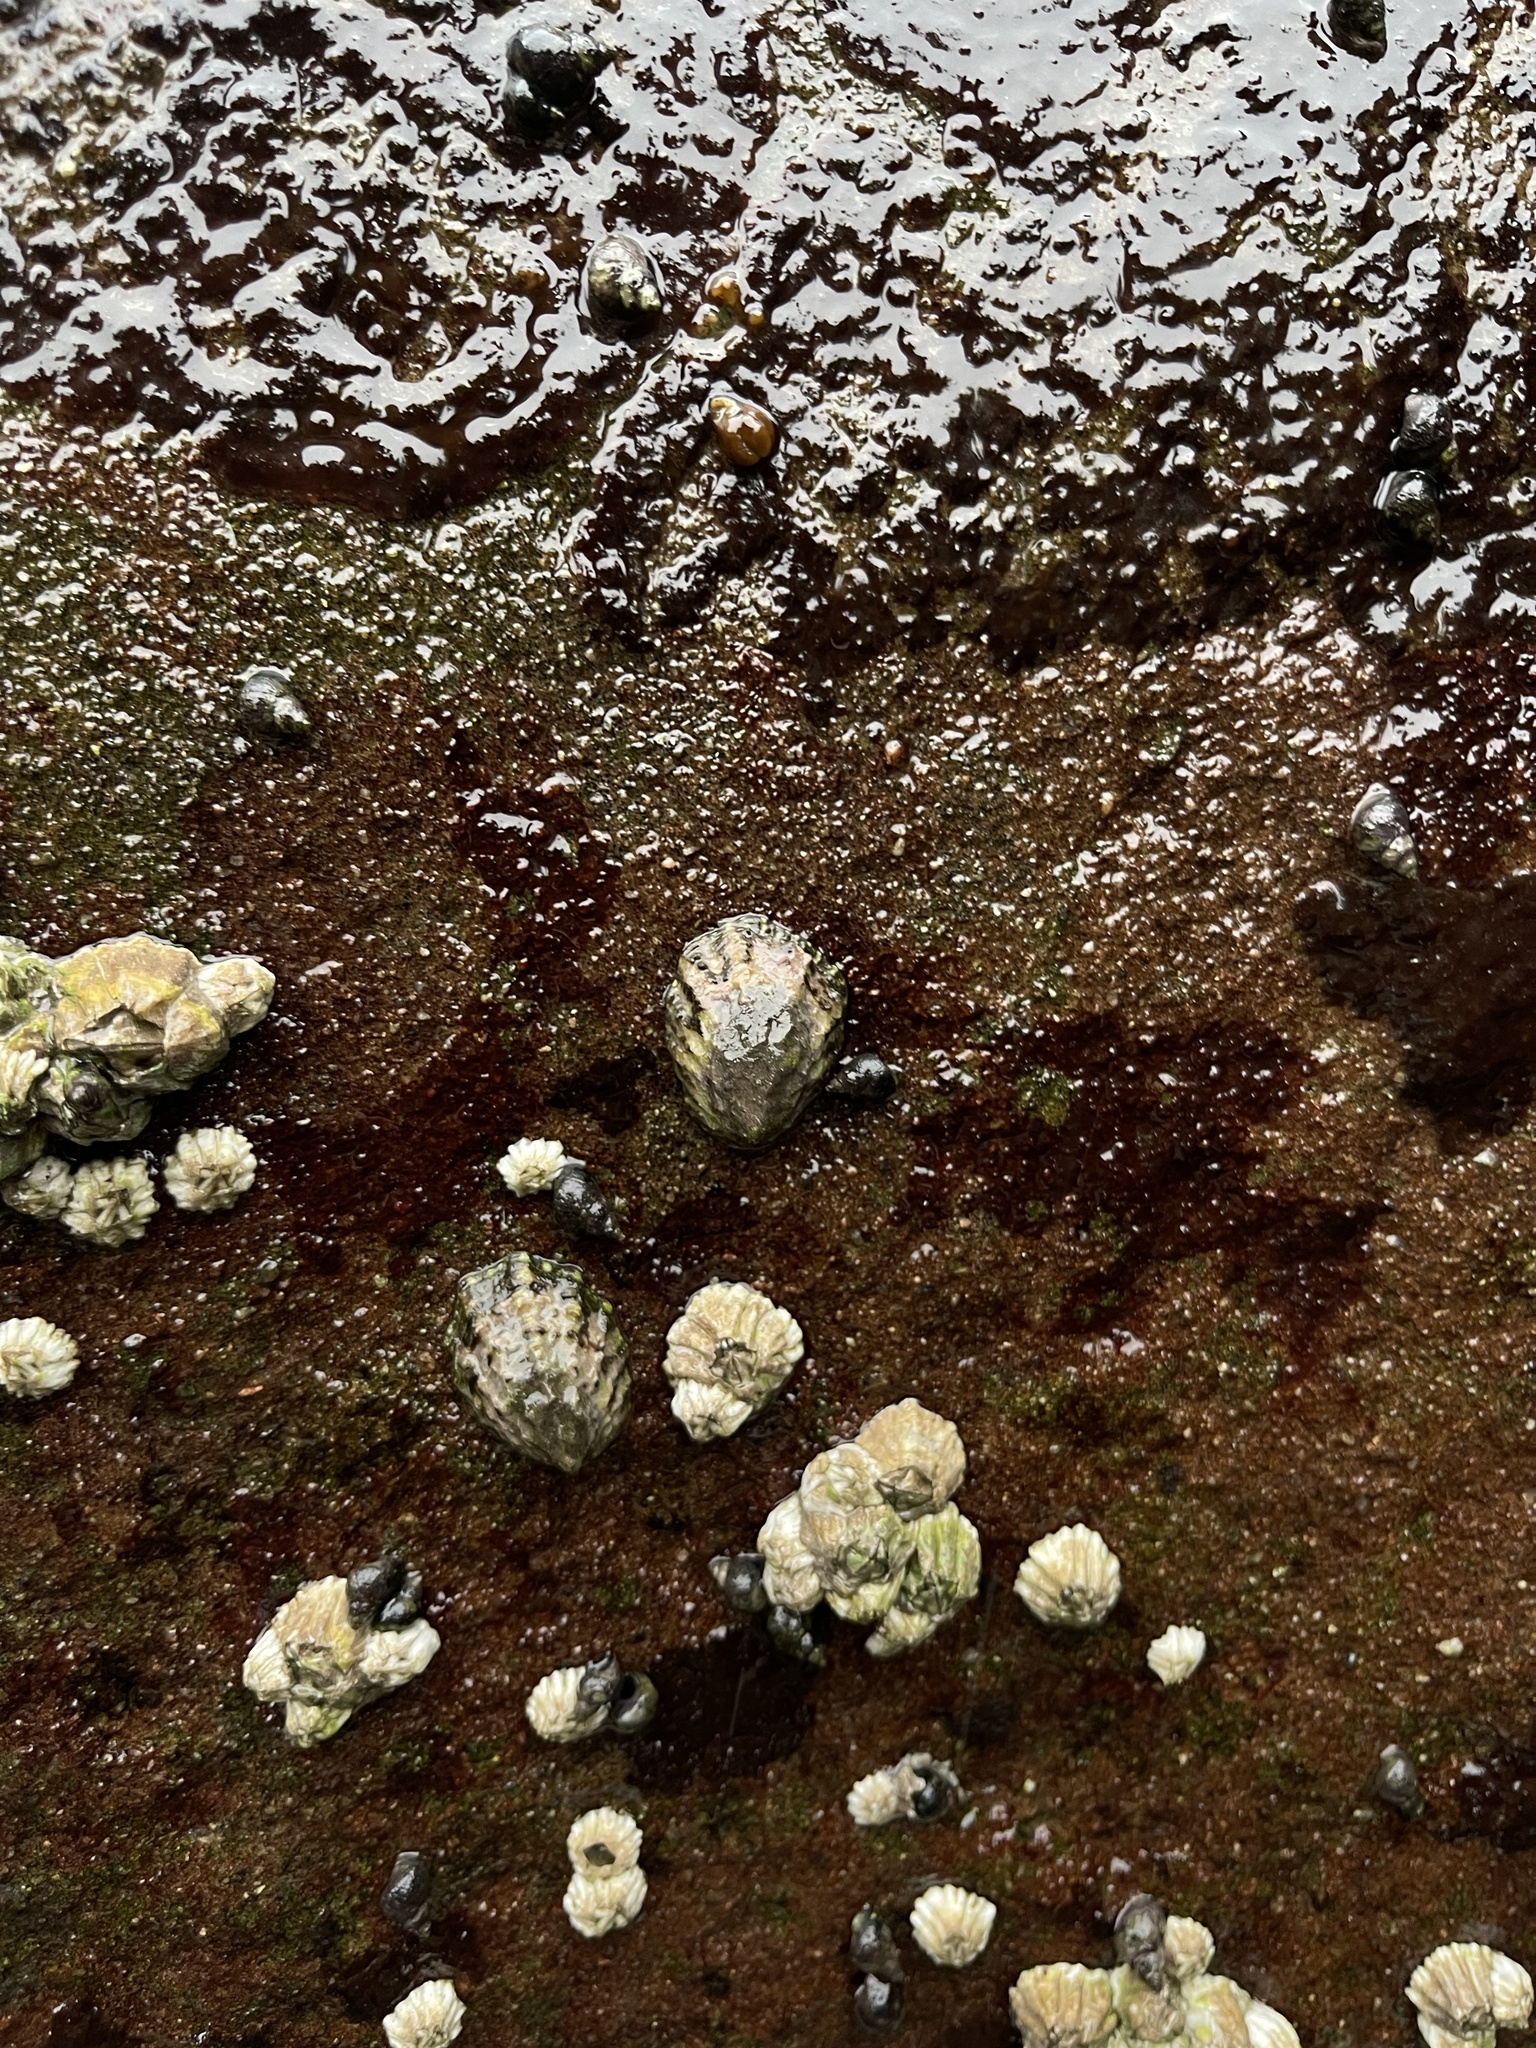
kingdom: Animalia
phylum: Mollusca
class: Gastropoda
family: Lottiidae
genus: Lottia
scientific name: Lottia digitalis
